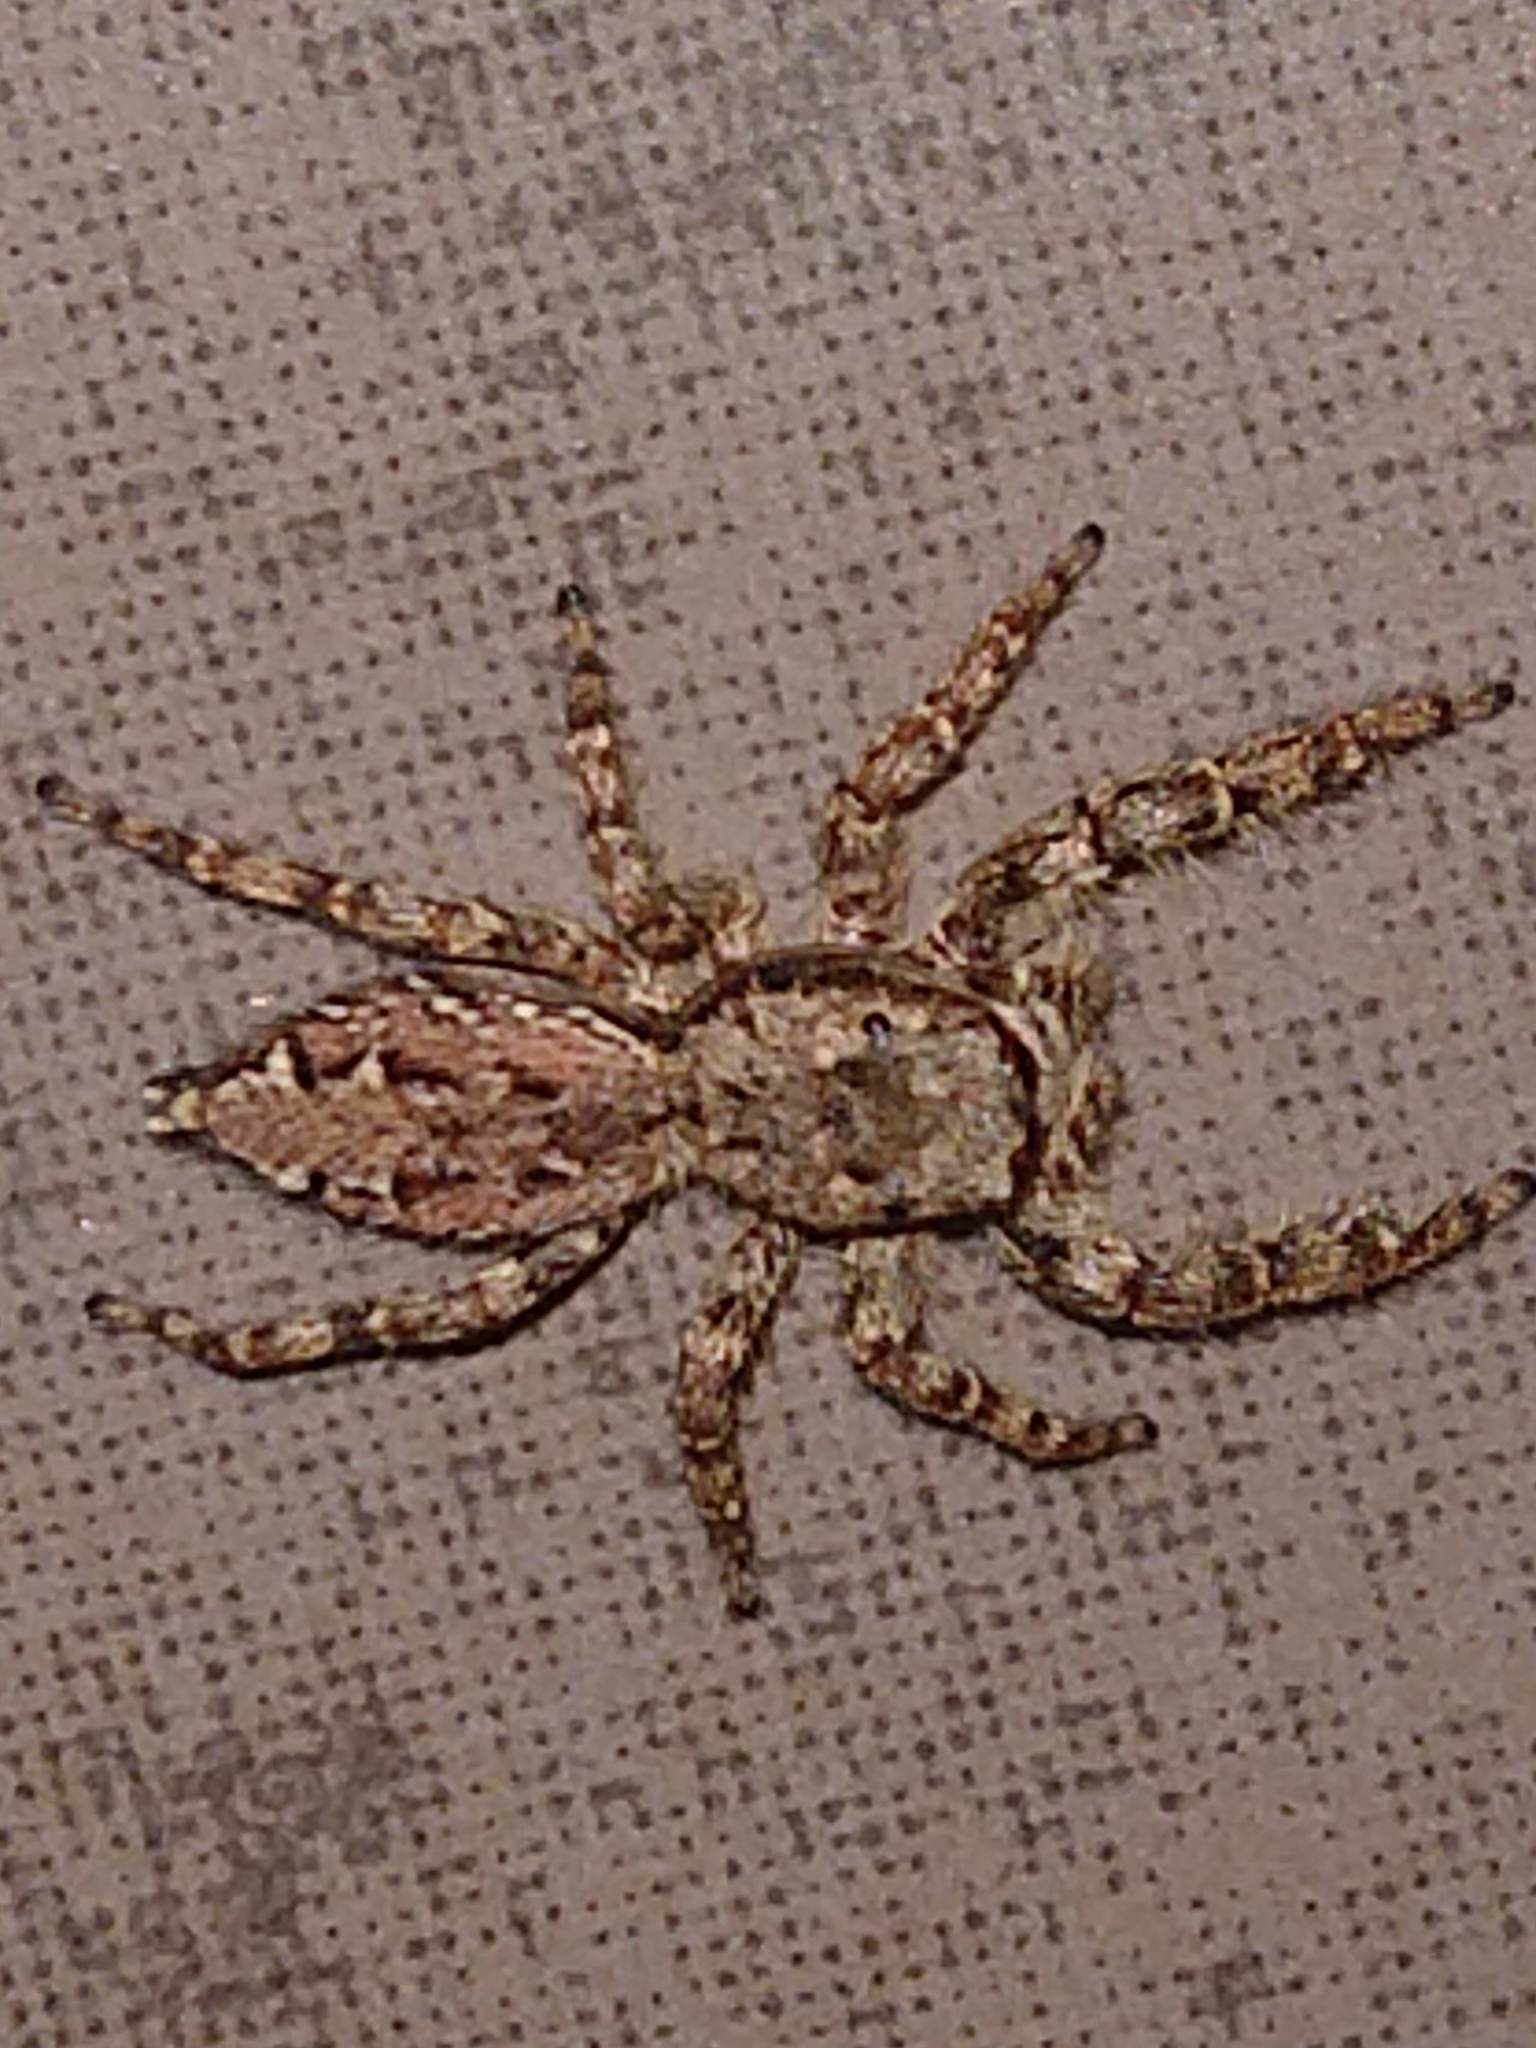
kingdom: Animalia
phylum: Arthropoda
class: Arachnida
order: Araneae
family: Salticidae
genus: Marpissa
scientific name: Marpissa muscosa
